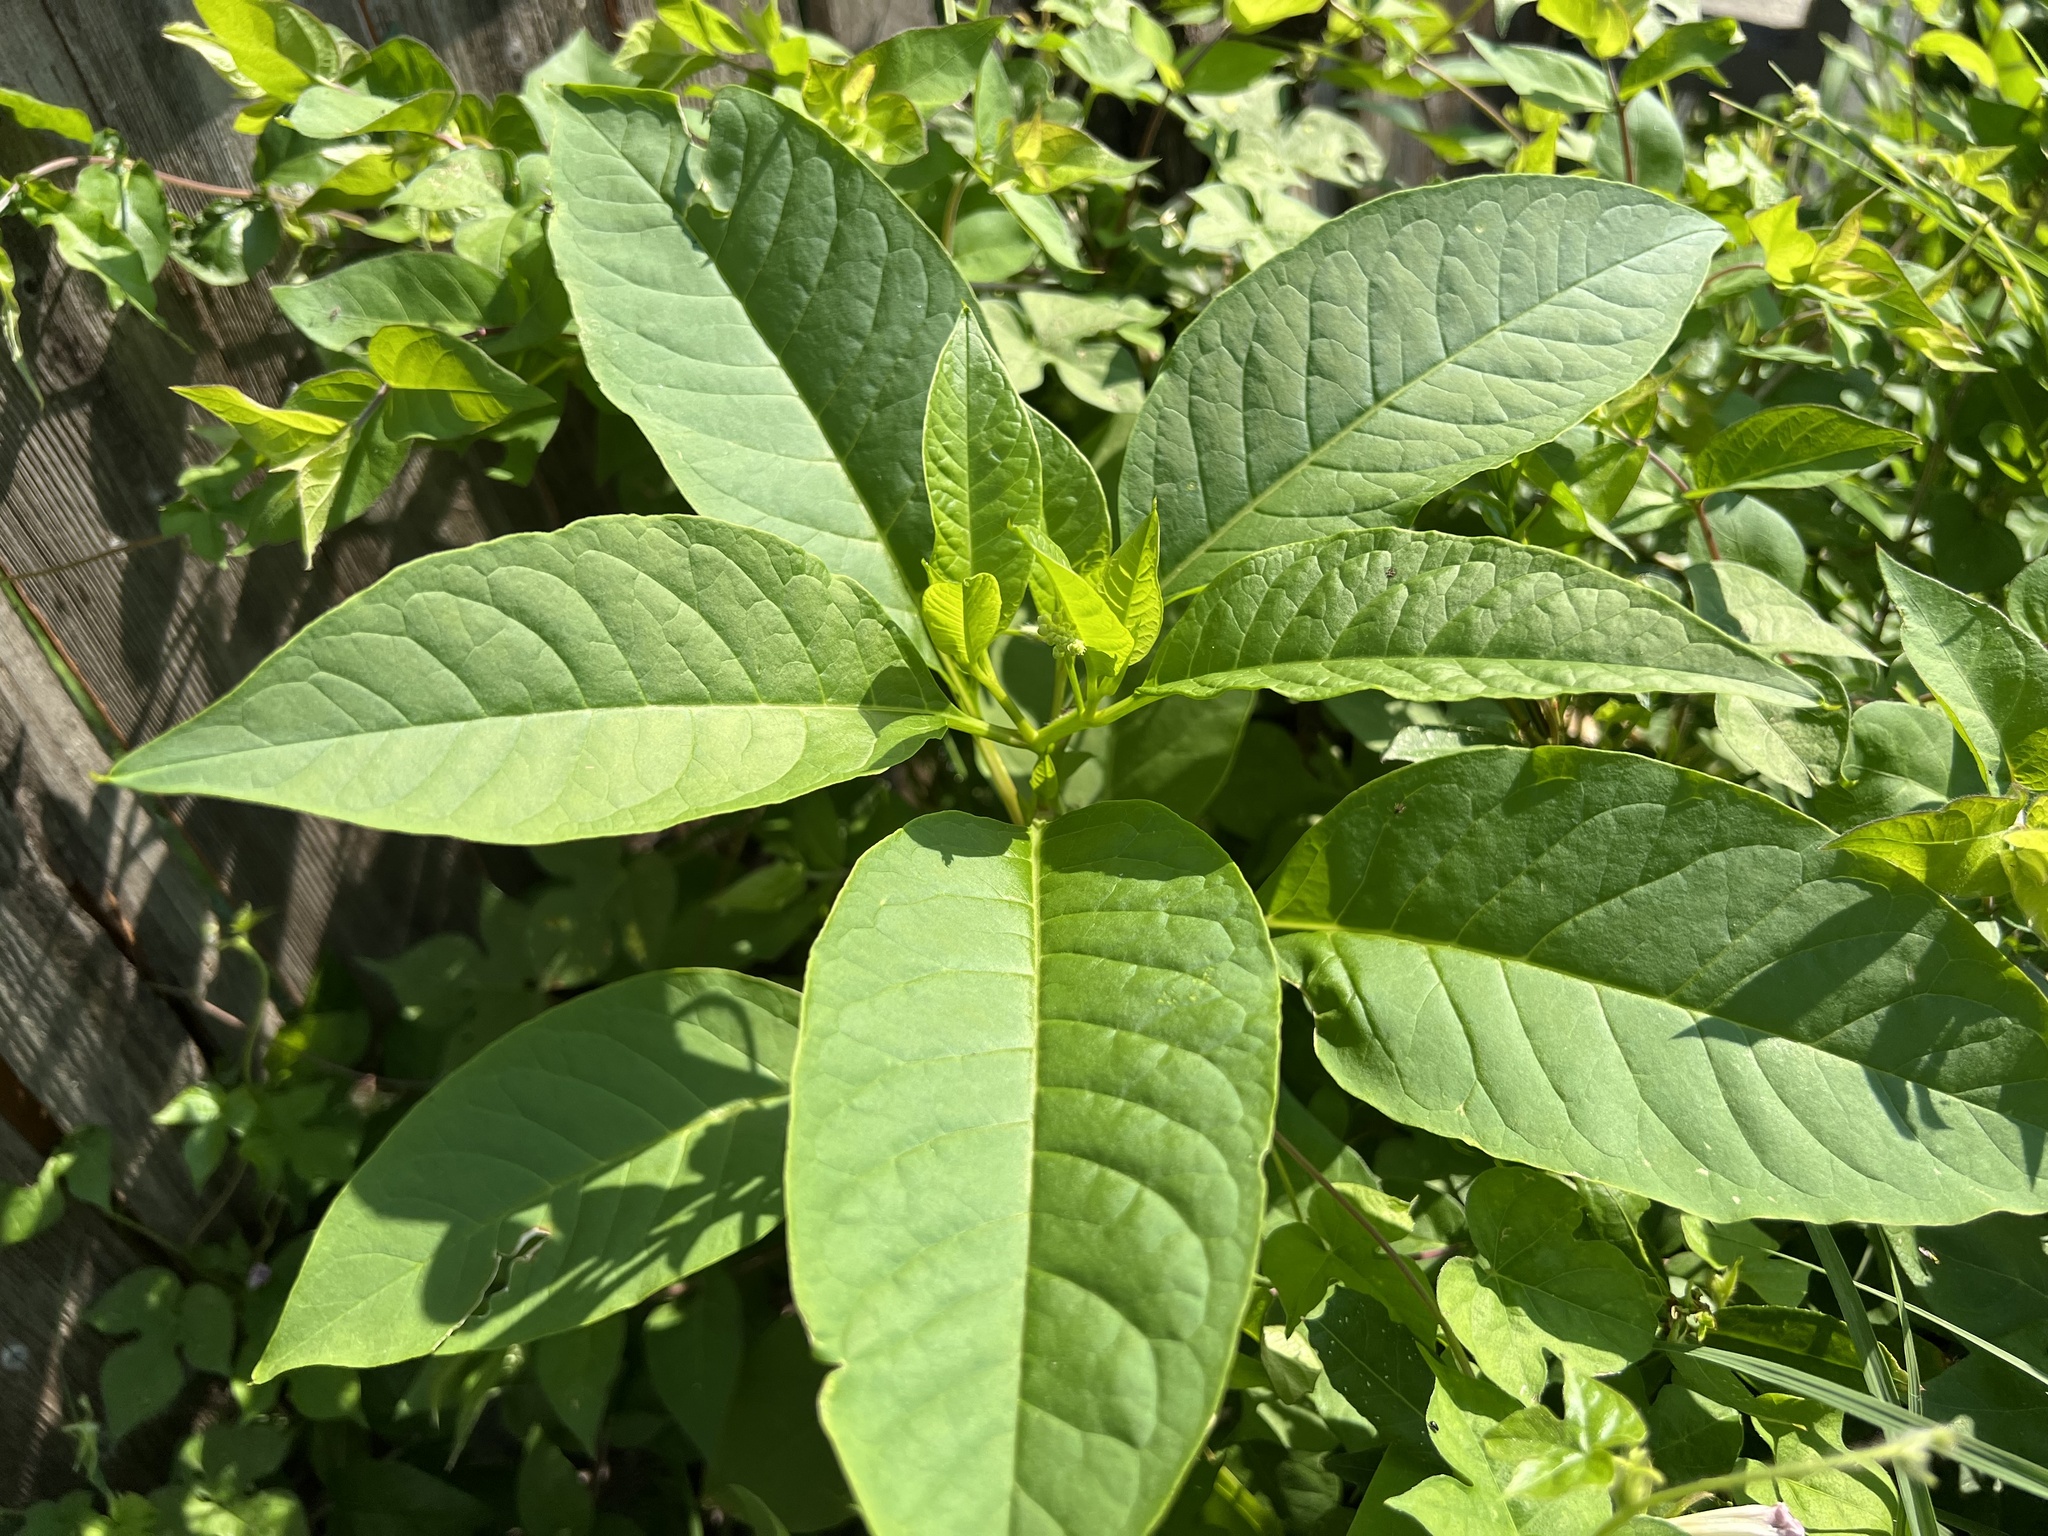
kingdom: Plantae
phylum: Tracheophyta
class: Magnoliopsida
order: Caryophyllales
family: Phytolaccaceae
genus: Phytolacca
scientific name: Phytolacca americana
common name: American pokeweed
